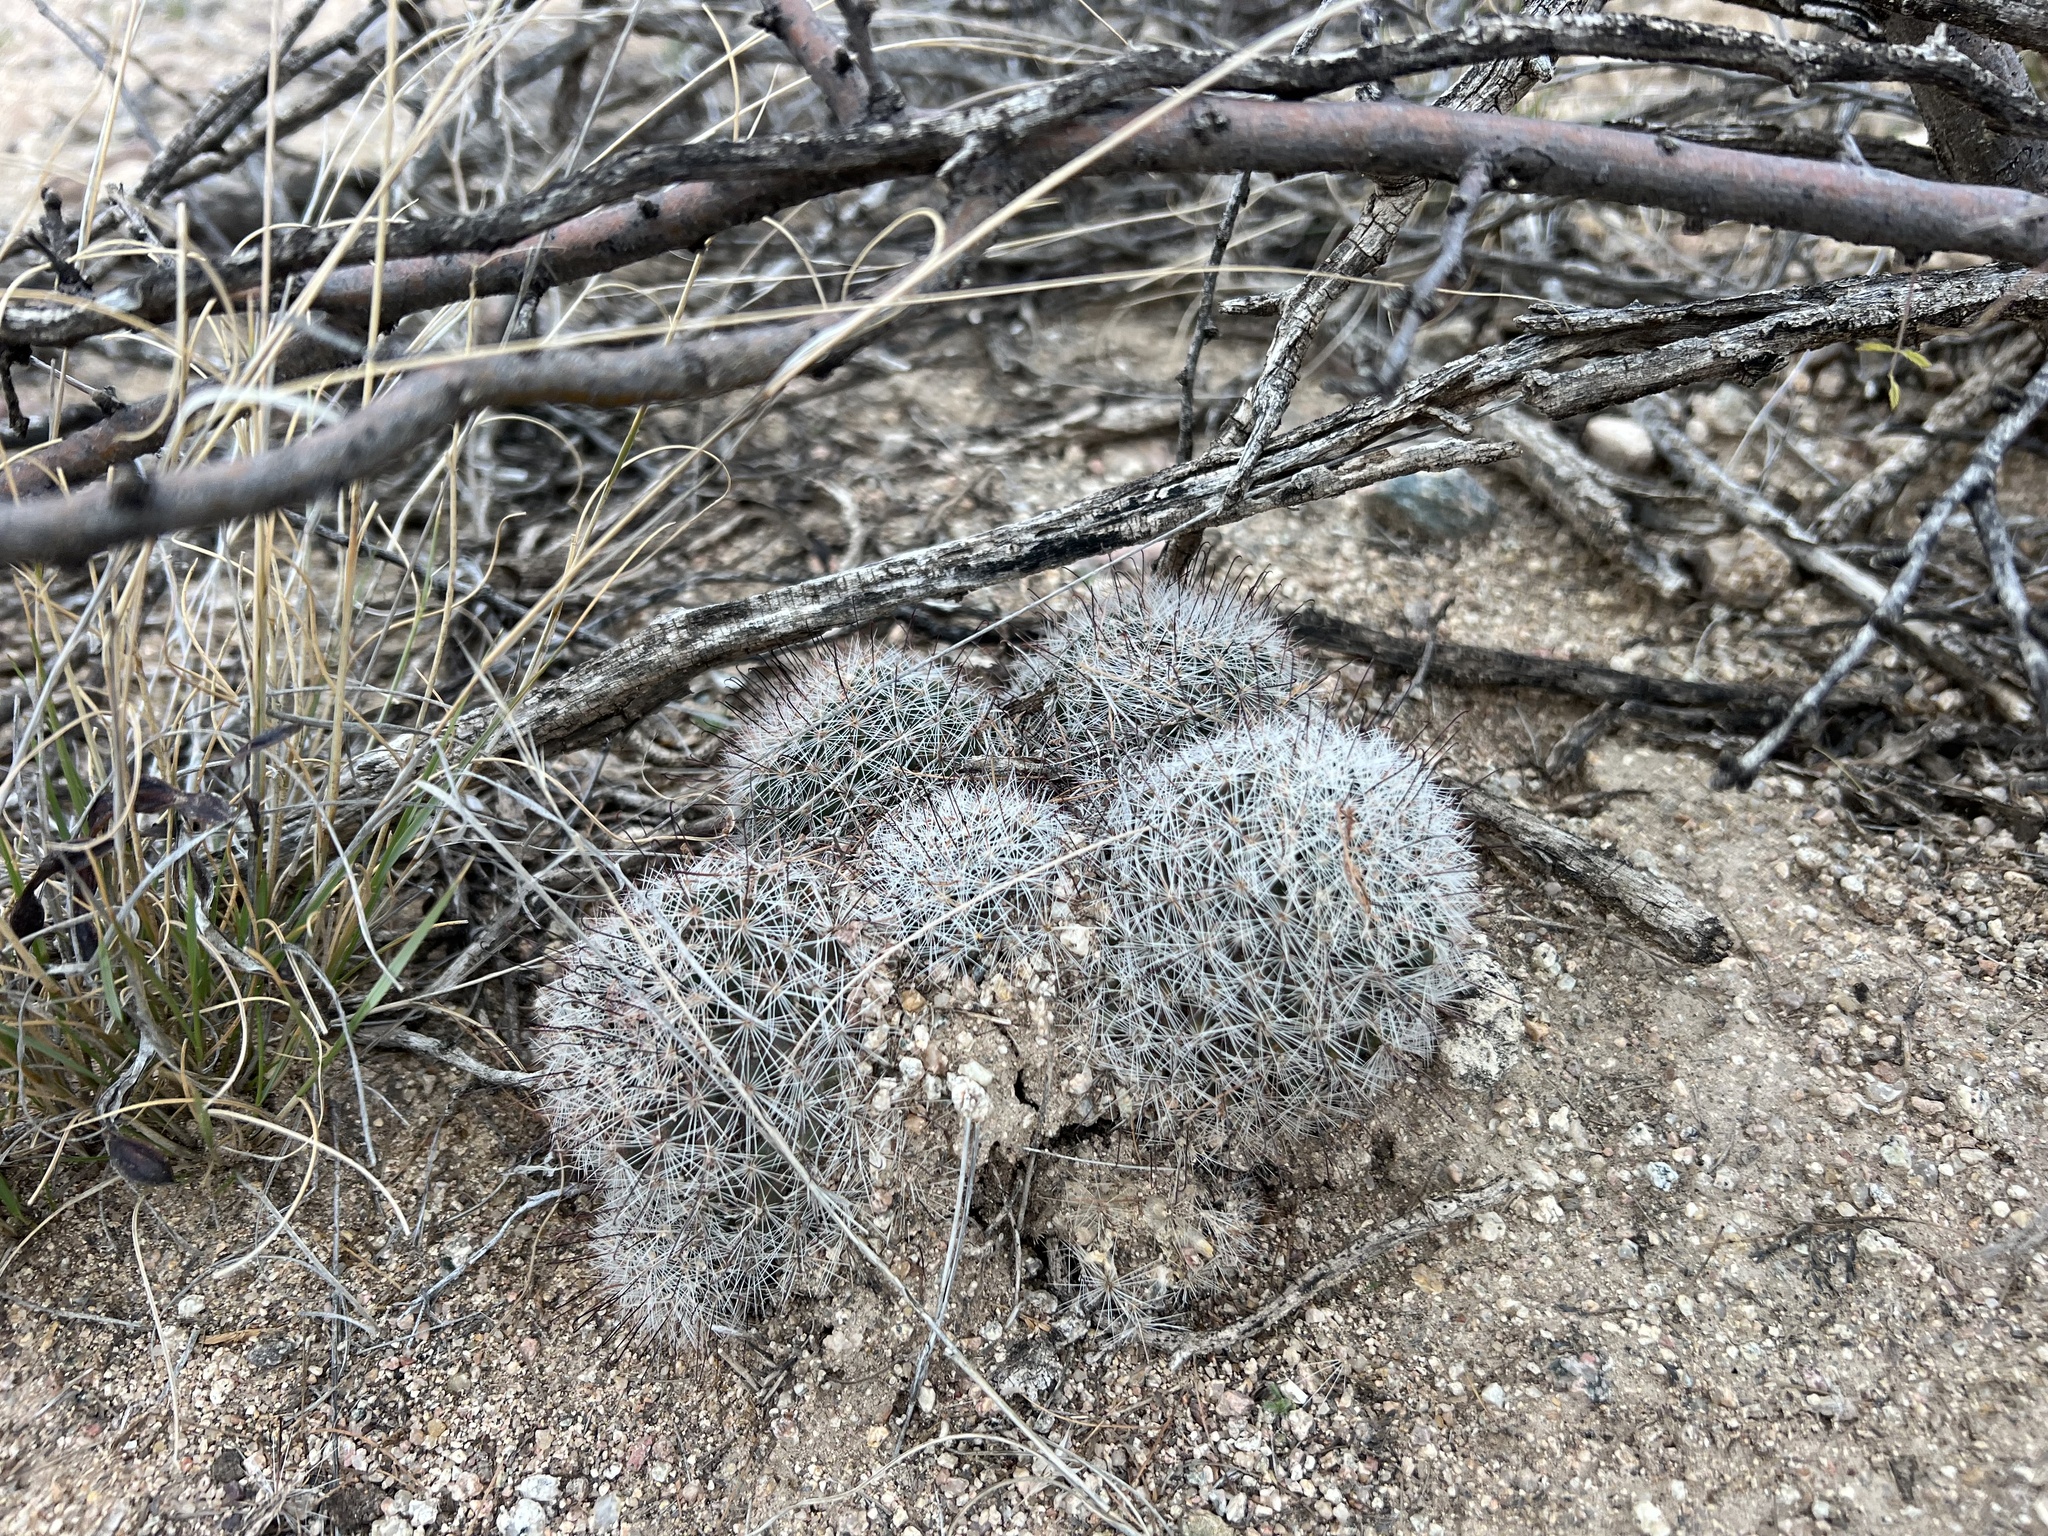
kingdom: Plantae
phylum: Tracheophyta
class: Magnoliopsida
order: Caryophyllales
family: Cactaceae
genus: Cochemiea
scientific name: Cochemiea grahamii
